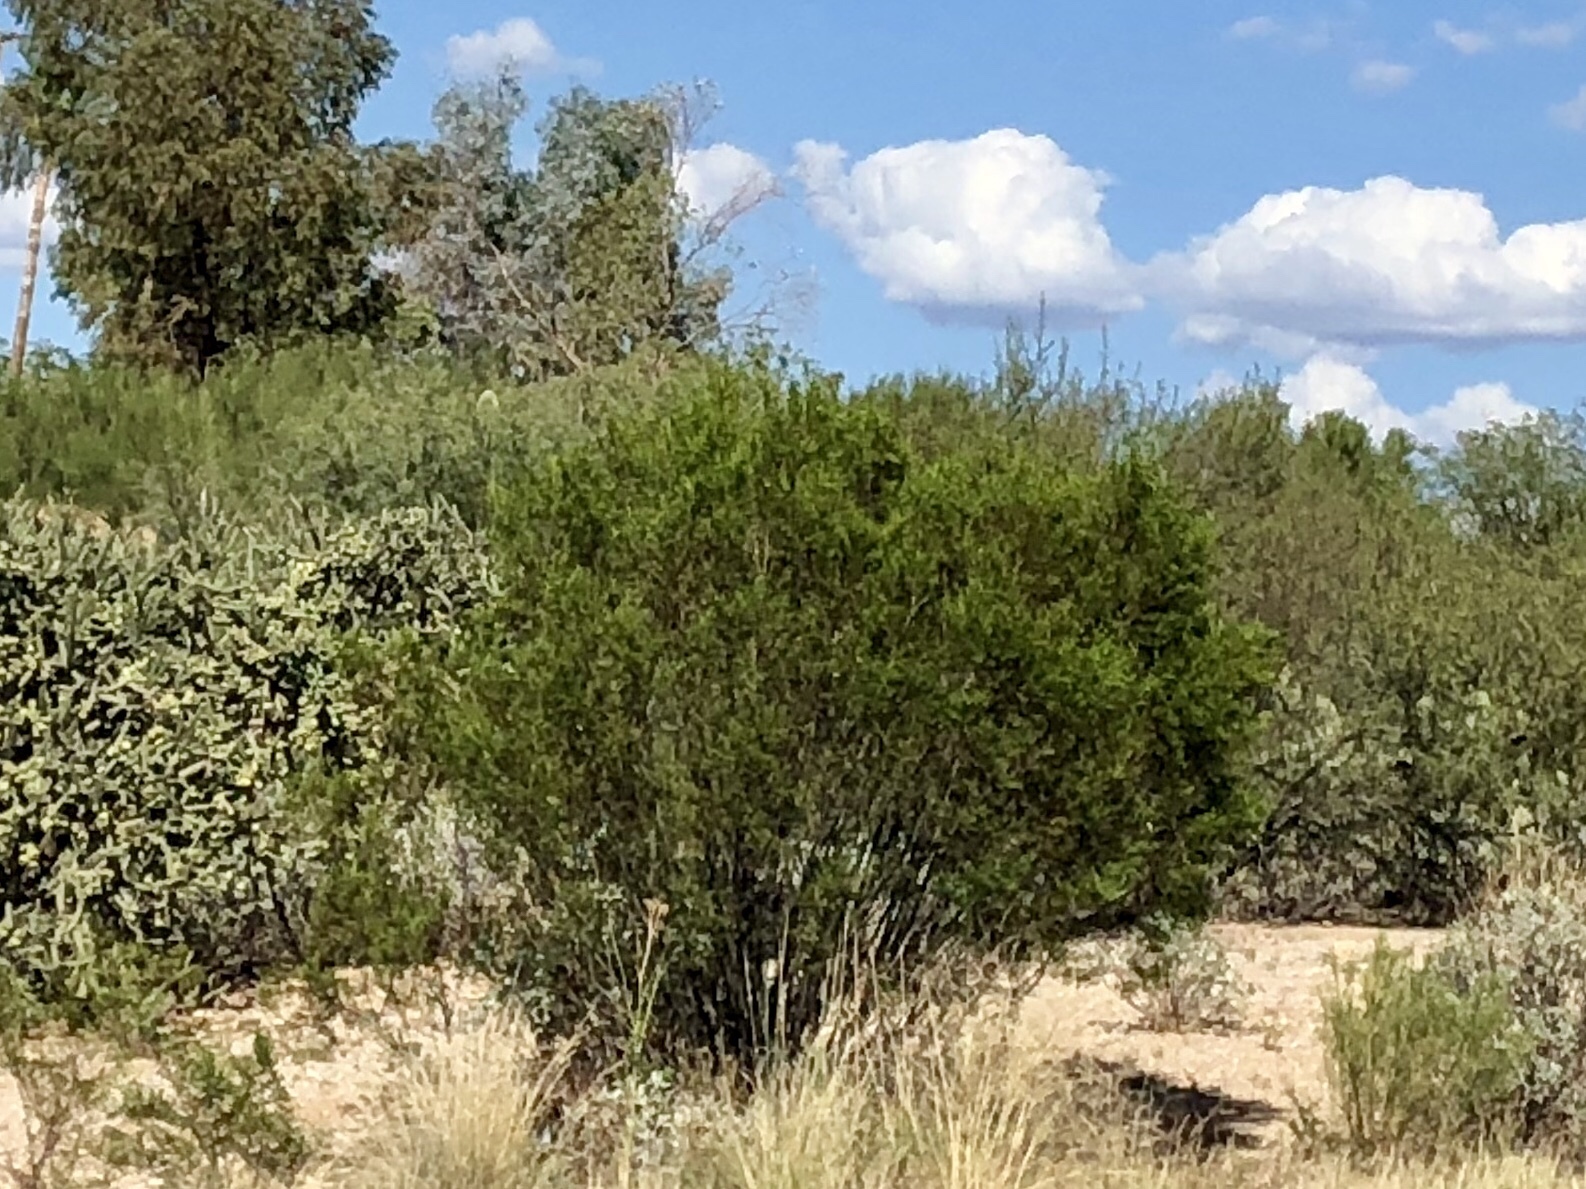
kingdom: Plantae
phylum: Tracheophyta
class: Magnoliopsida
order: Zygophyllales
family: Zygophyllaceae
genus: Larrea
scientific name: Larrea tridentata
